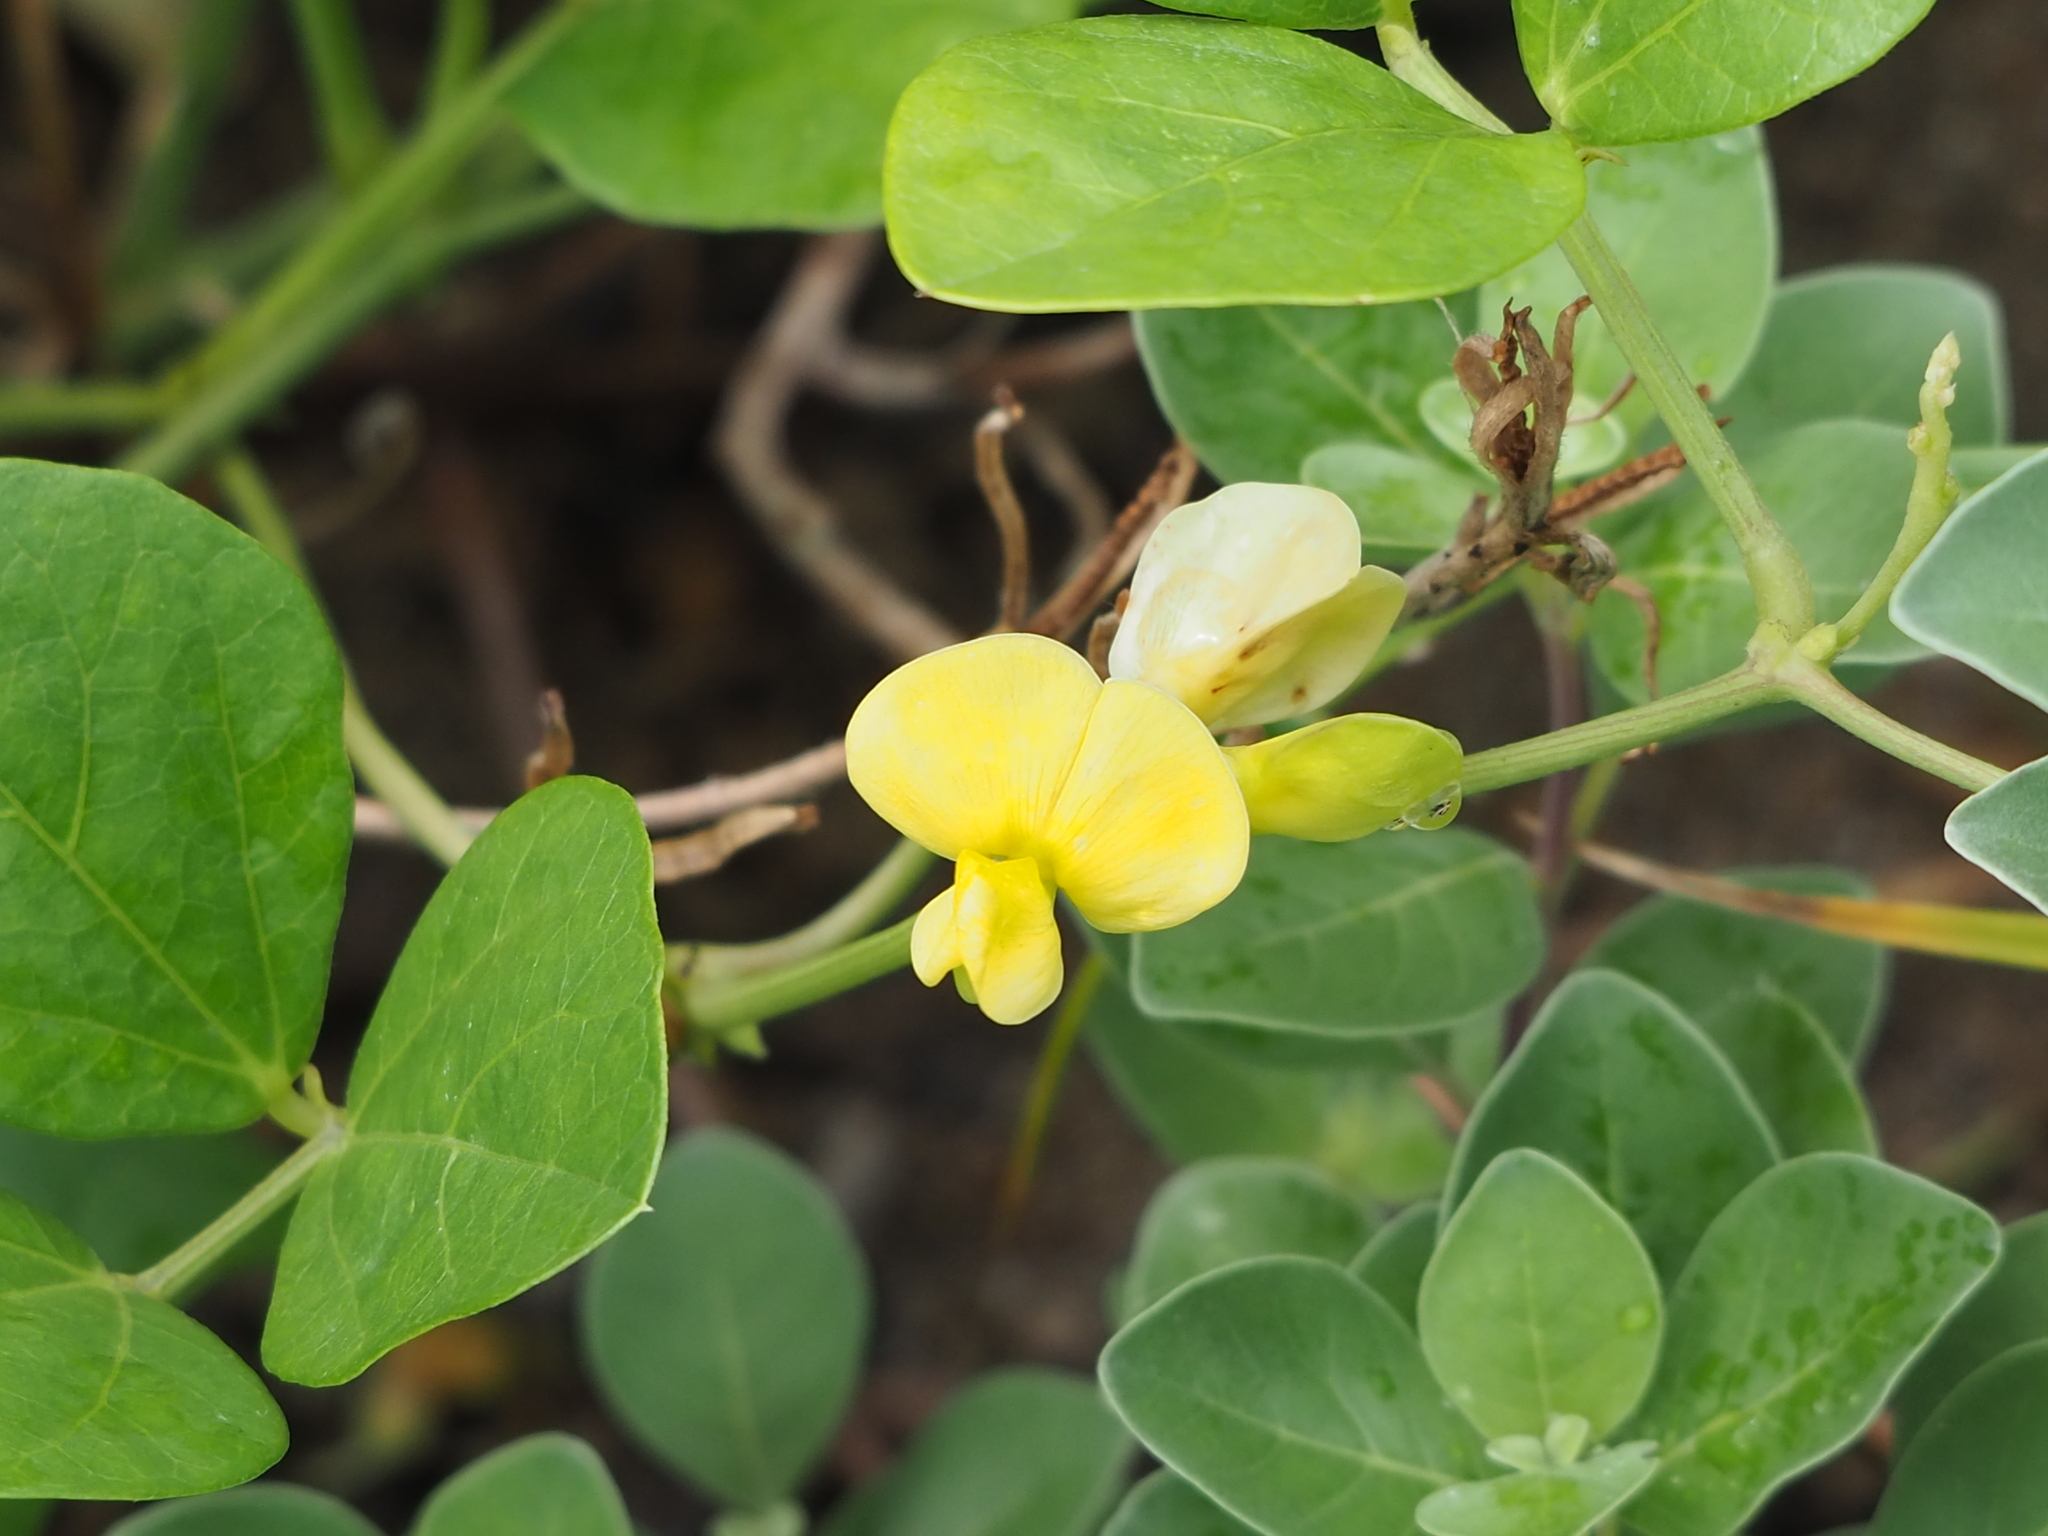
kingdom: Plantae
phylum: Tracheophyta
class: Magnoliopsida
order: Fabales
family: Fabaceae
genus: Vigna
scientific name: Vigna marina
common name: Dune-bean
